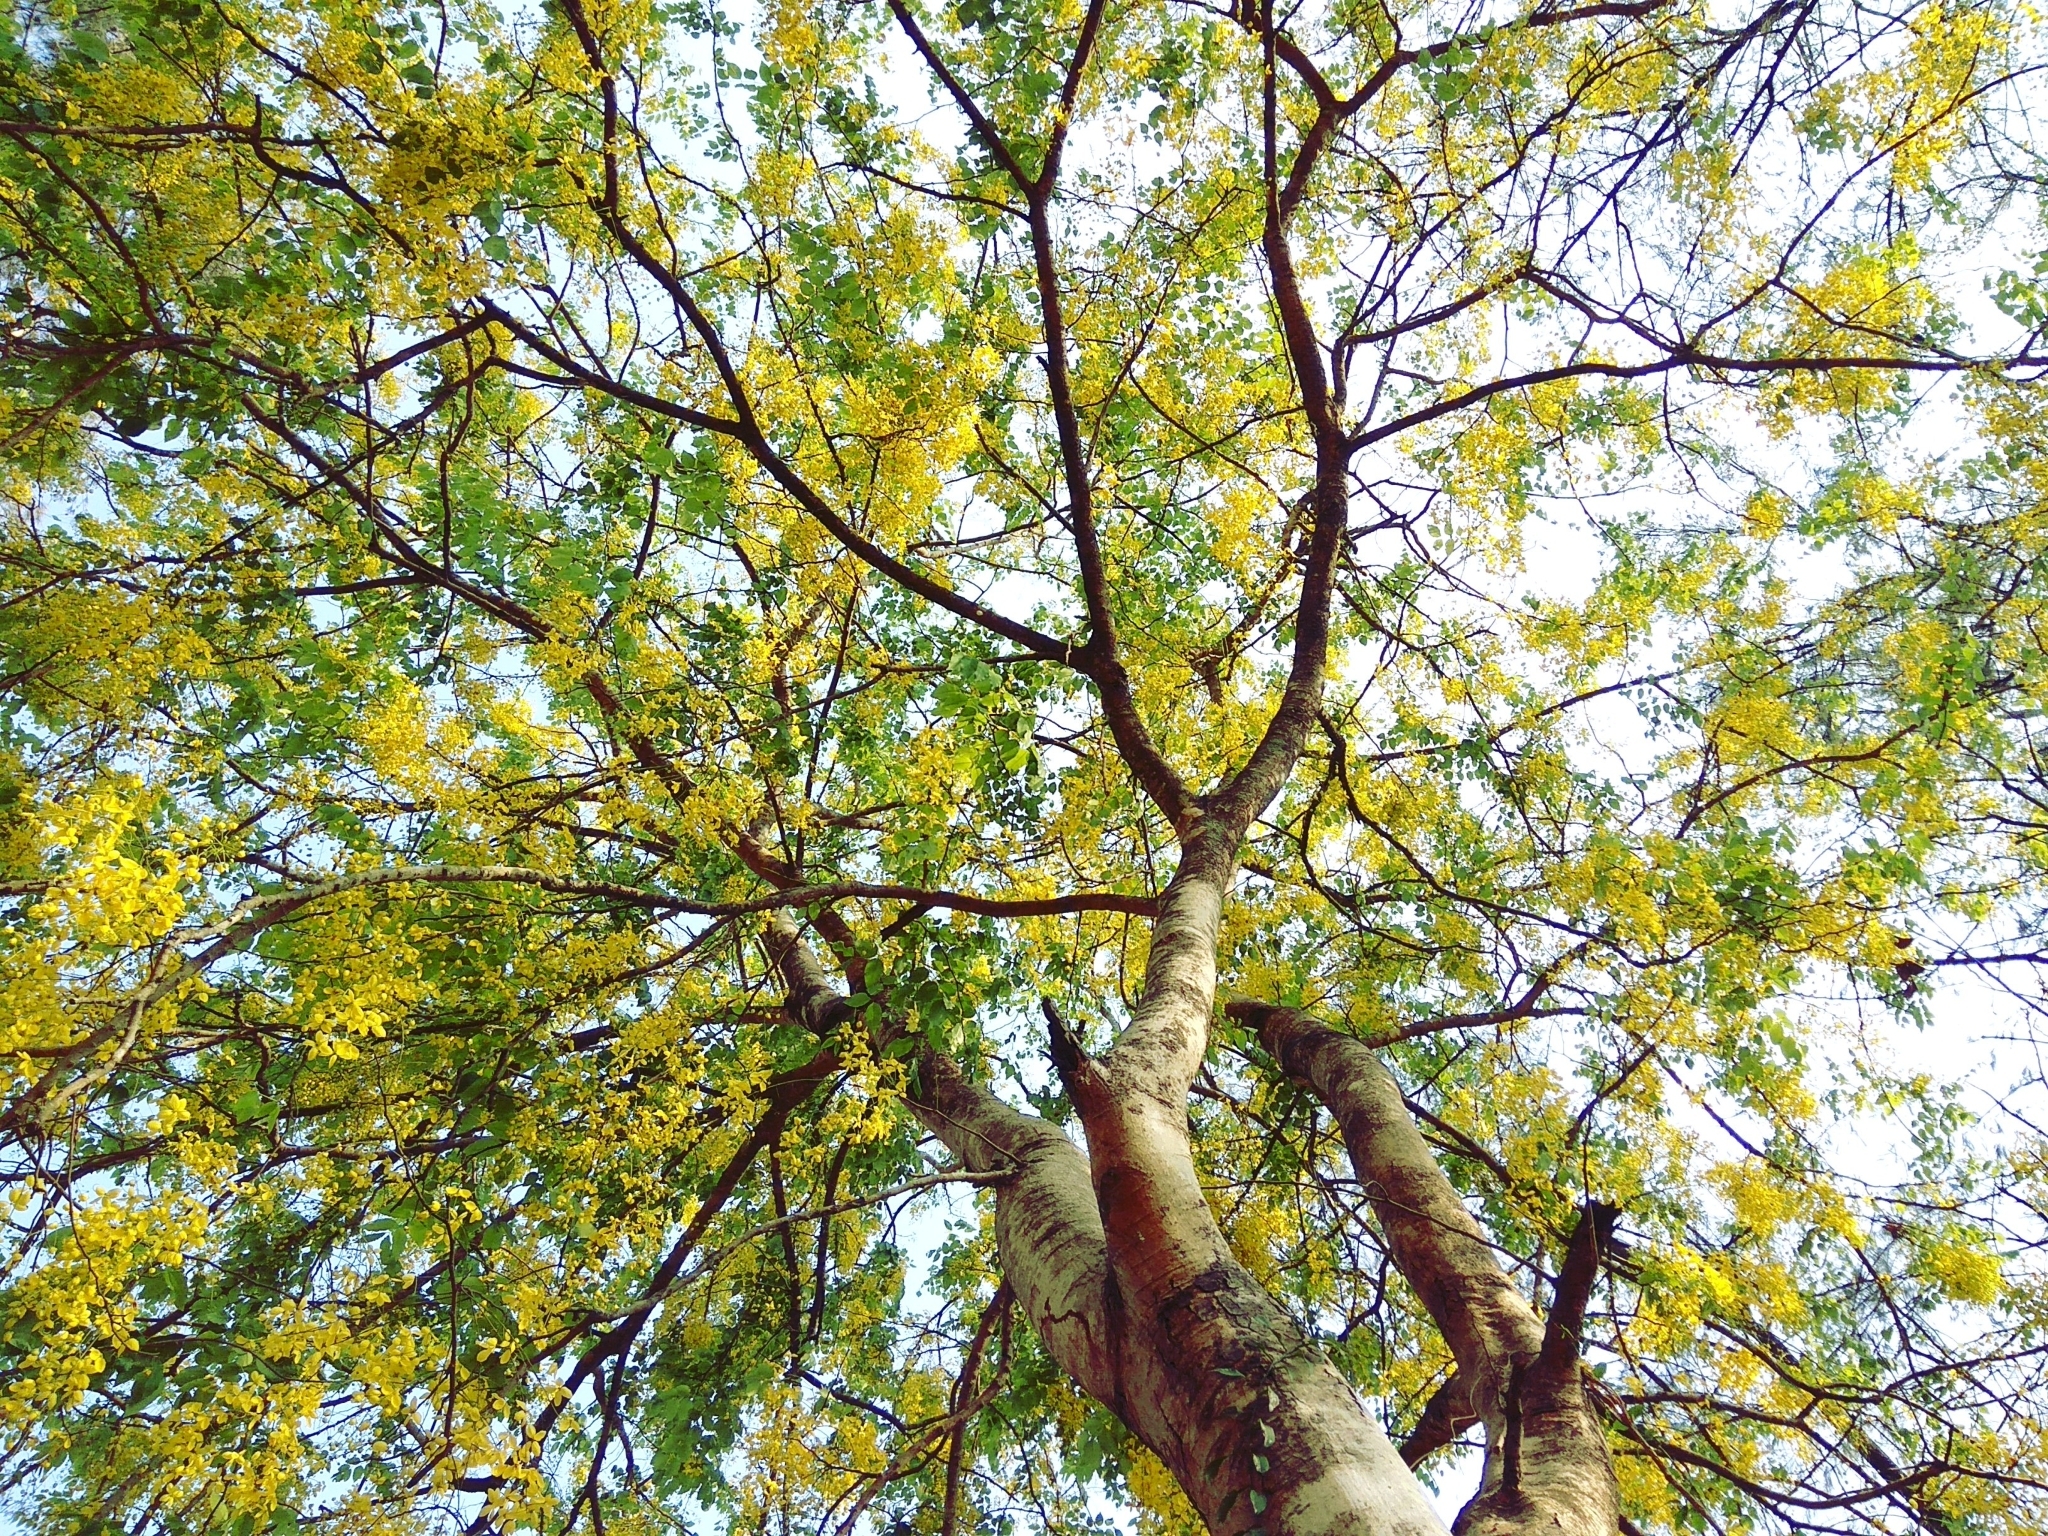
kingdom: Plantae
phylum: Tracheophyta
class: Magnoliopsida
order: Fabales
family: Fabaceae
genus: Cassia
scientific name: Cassia fistula
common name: Golden shower
